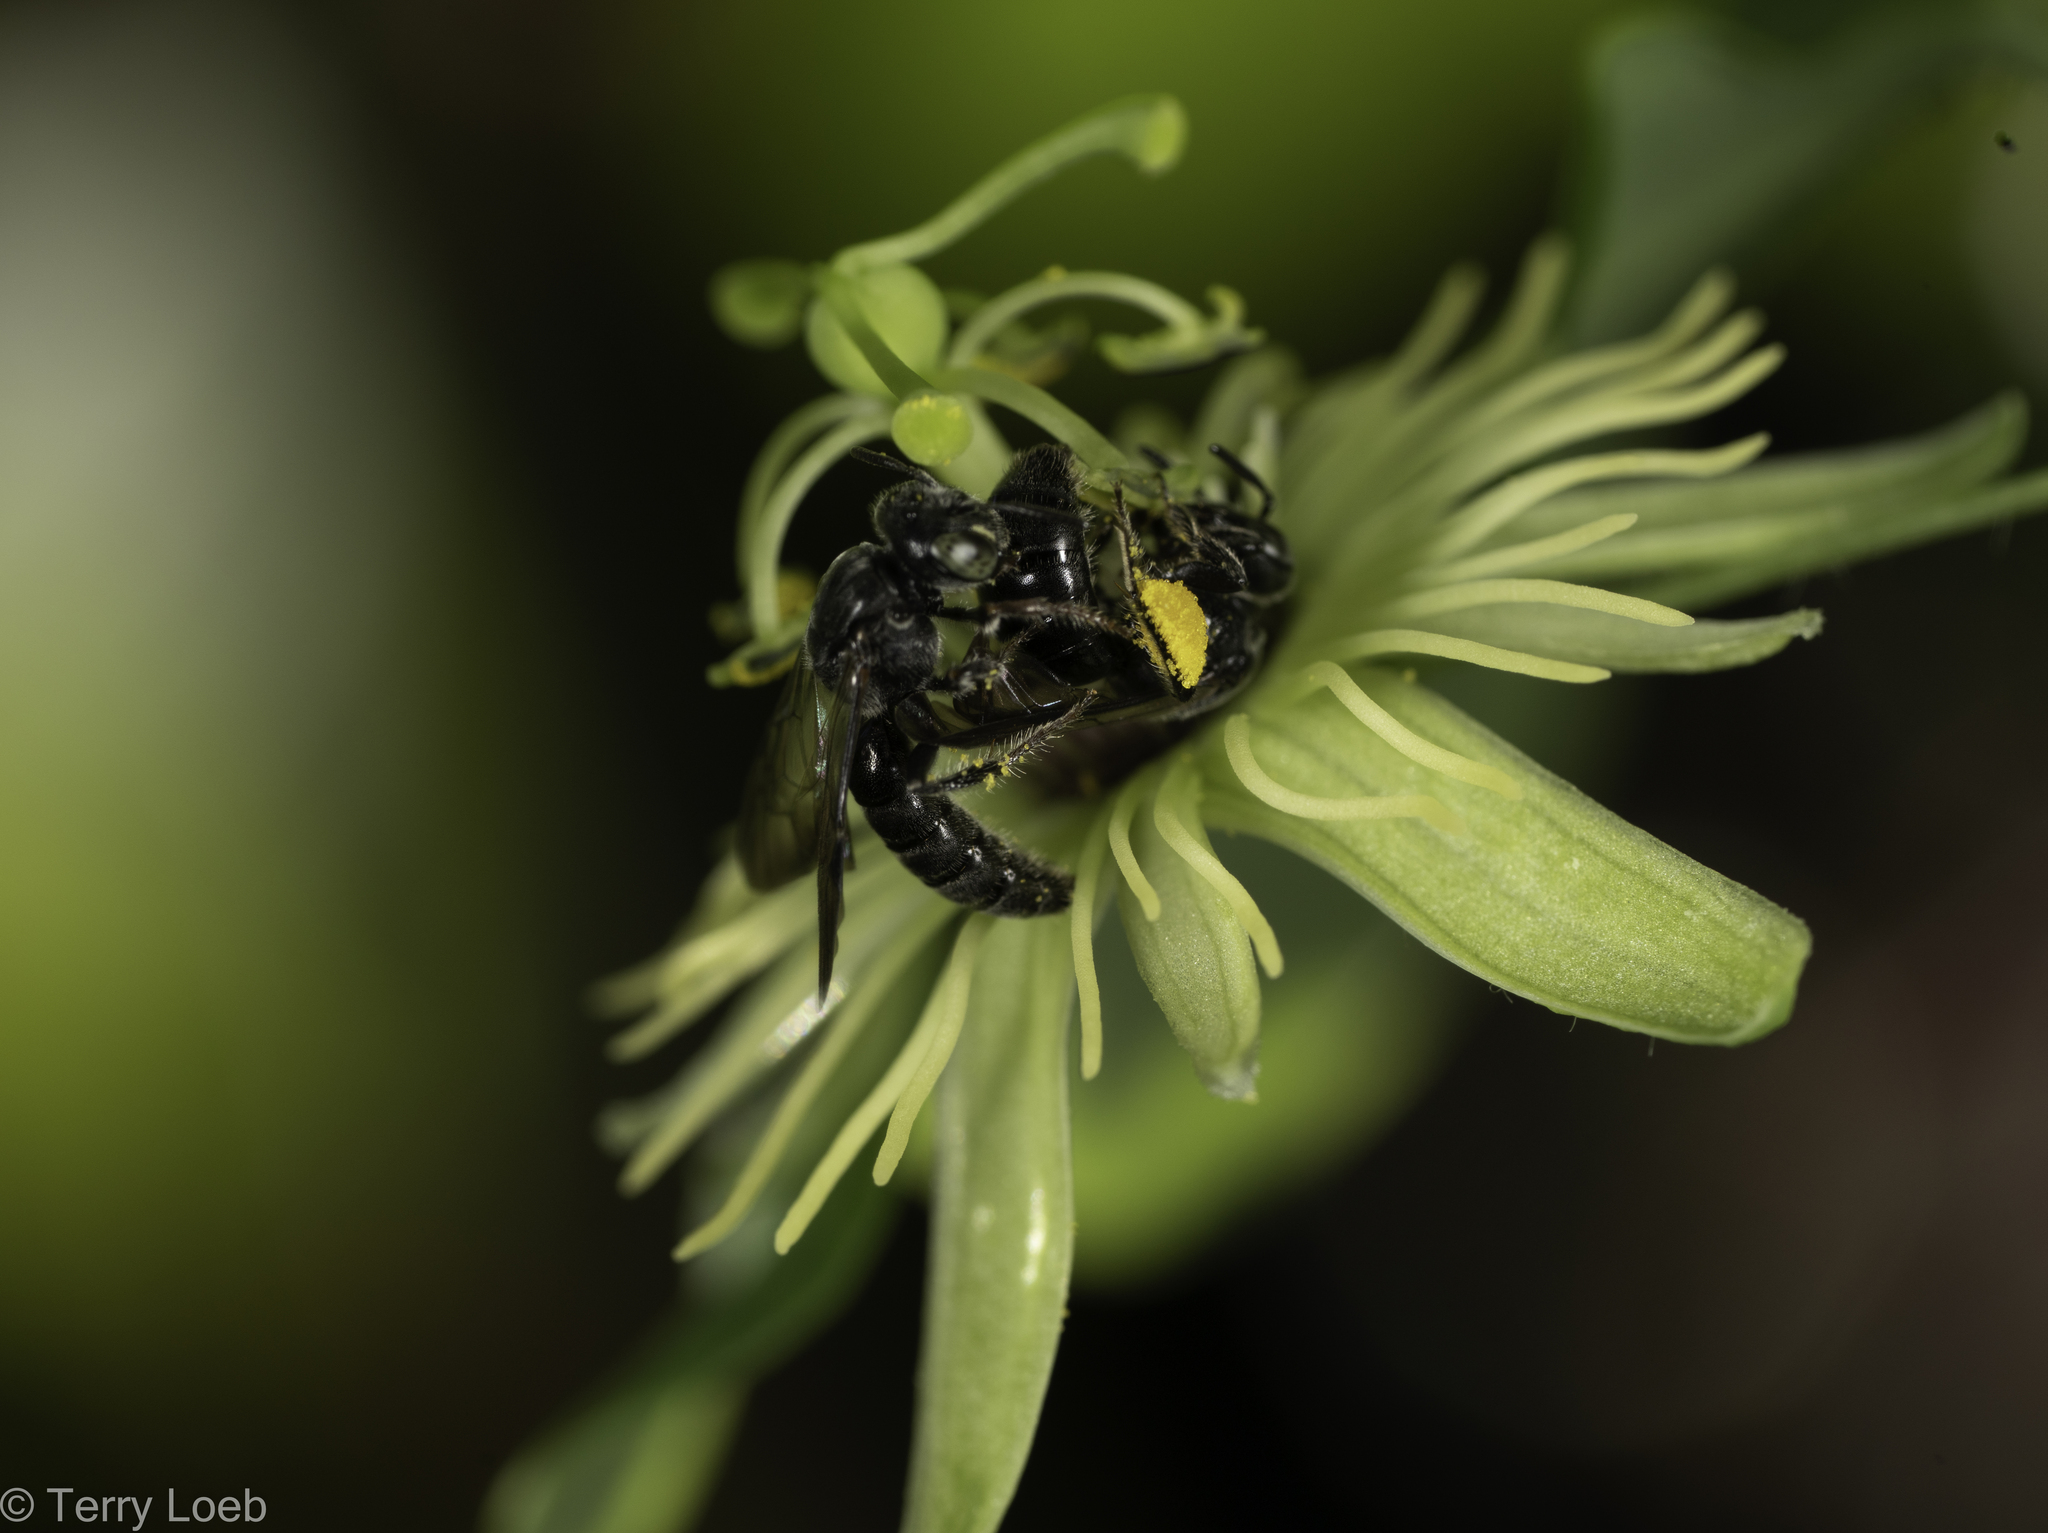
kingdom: Animalia
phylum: Arthropoda
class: Insecta
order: Hymenoptera
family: Andrenidae
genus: Protandrena
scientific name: Protandrena
